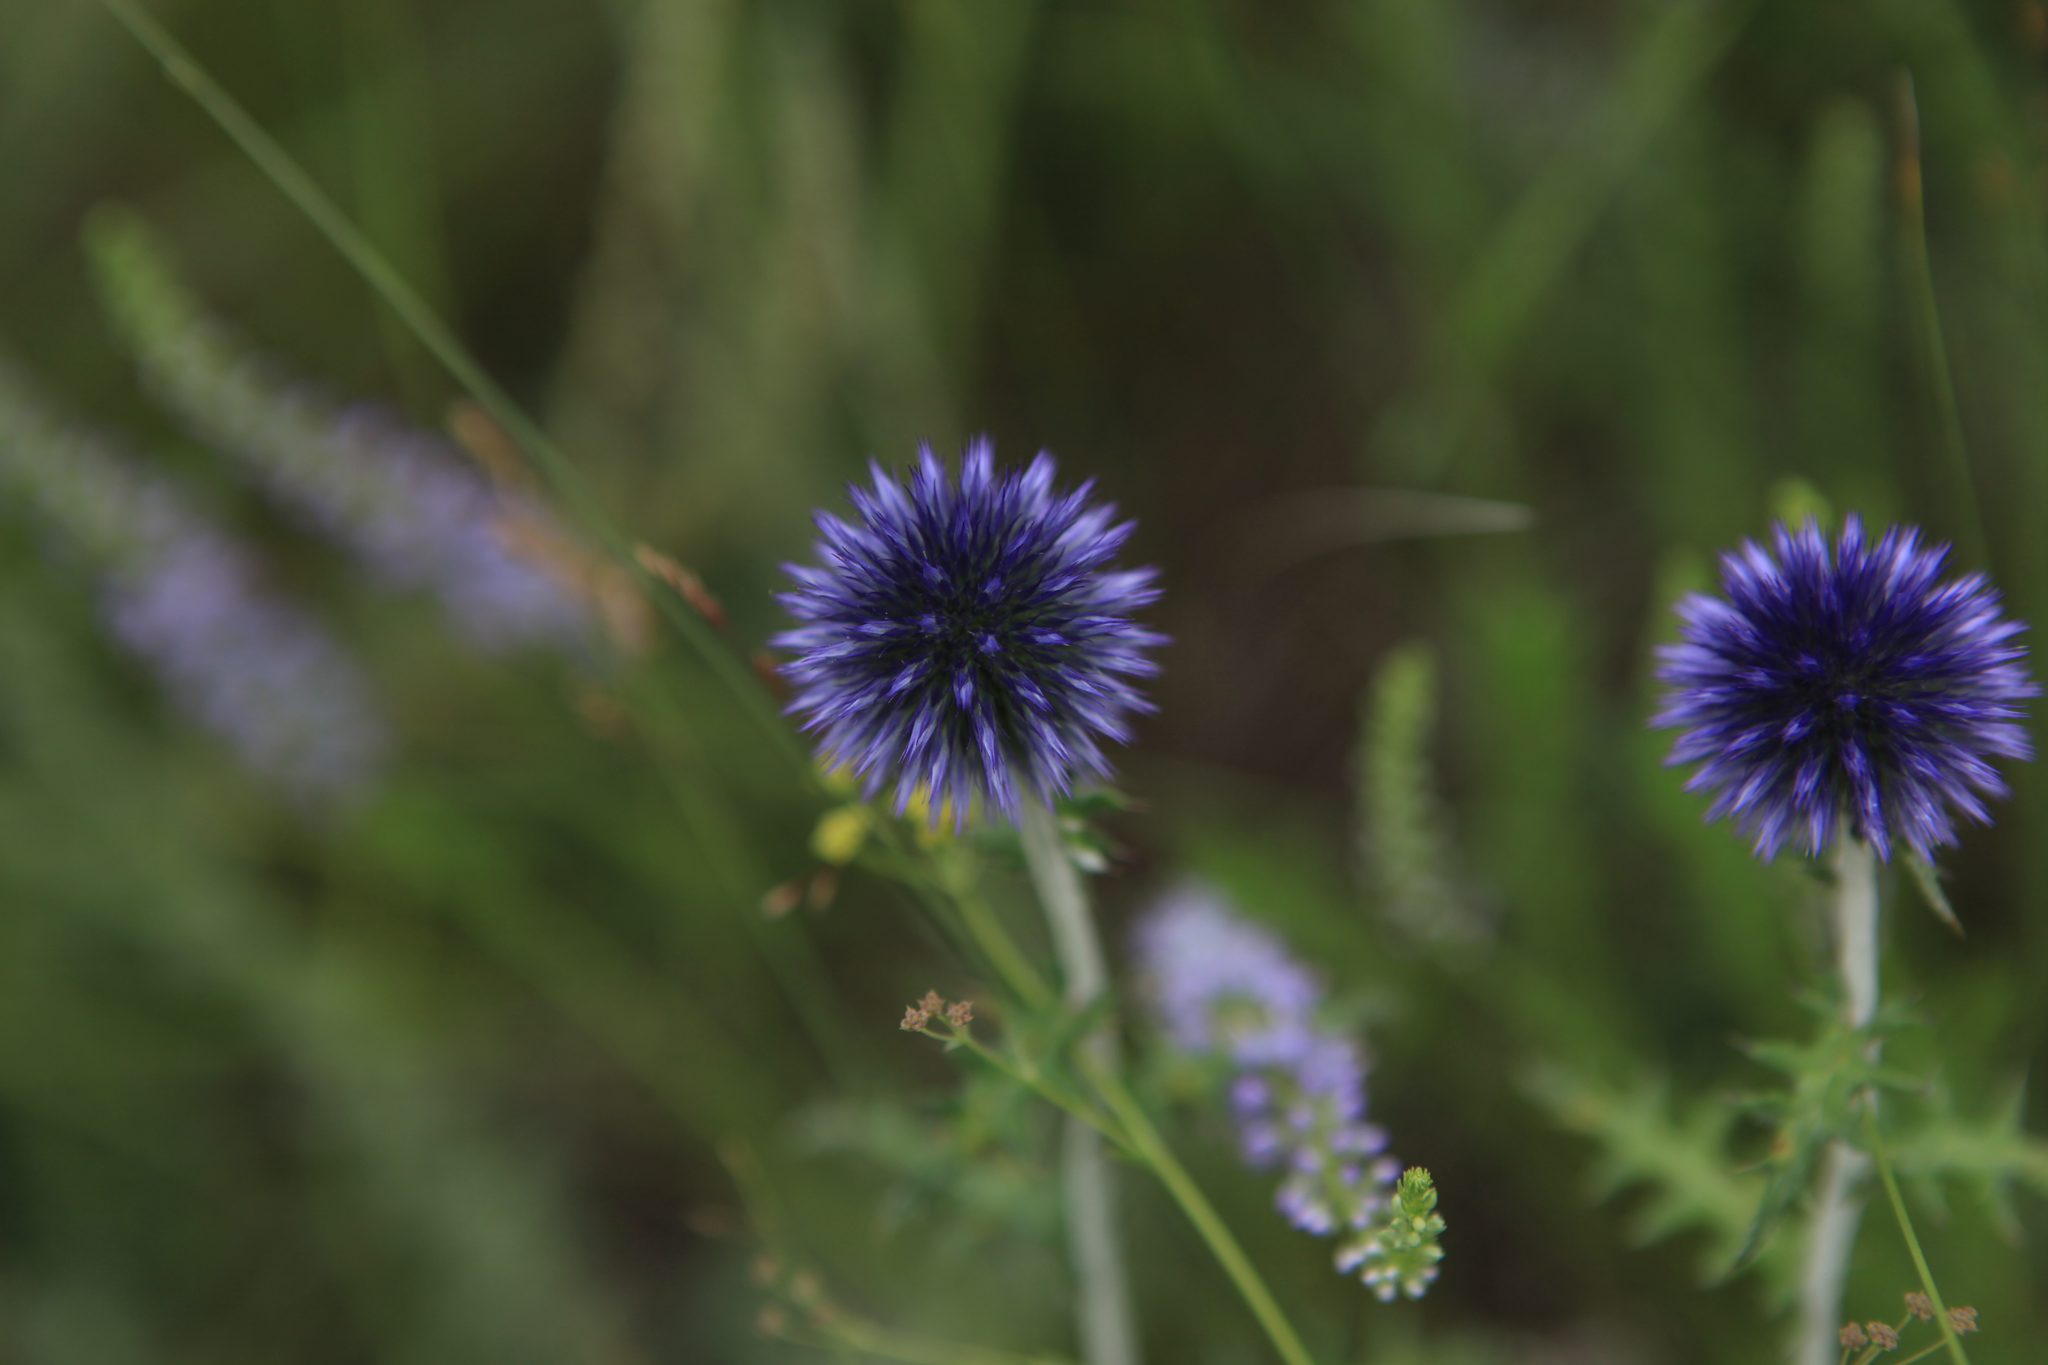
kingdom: Plantae
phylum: Tracheophyta
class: Magnoliopsida
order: Asterales
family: Asteraceae
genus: Echinops
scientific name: Echinops ritro
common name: Globe thistle
